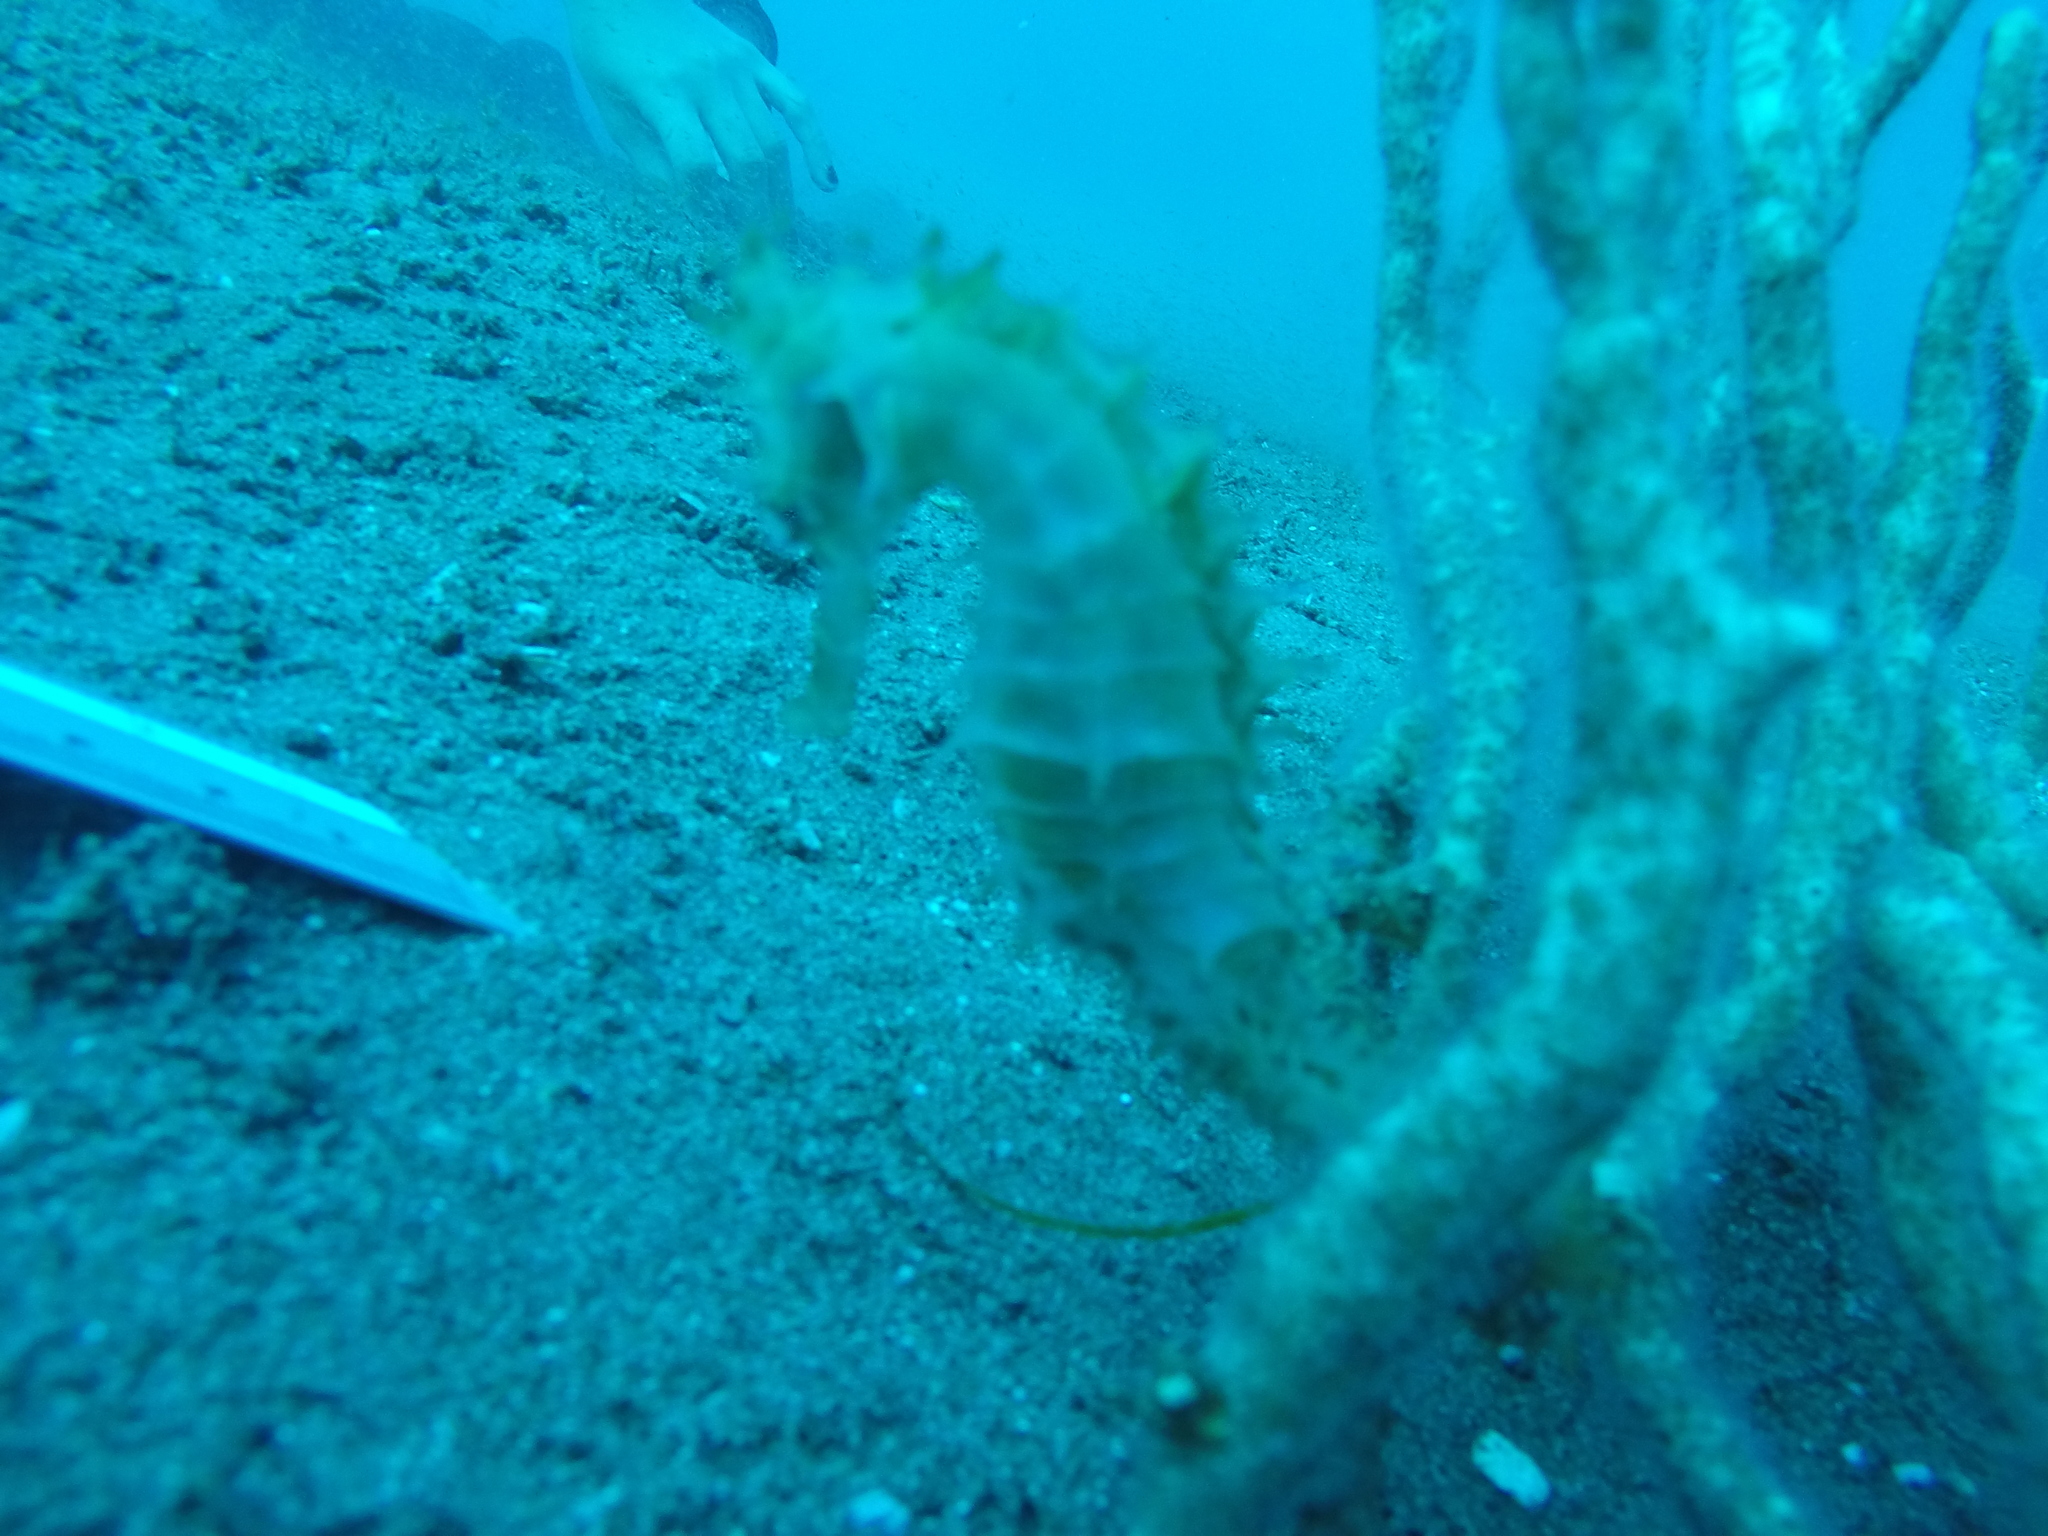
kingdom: Animalia
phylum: Chordata
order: Syngnathiformes
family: Syngnathidae
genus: Hippocampus
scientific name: Hippocampus histrix
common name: Longspine seahorse
